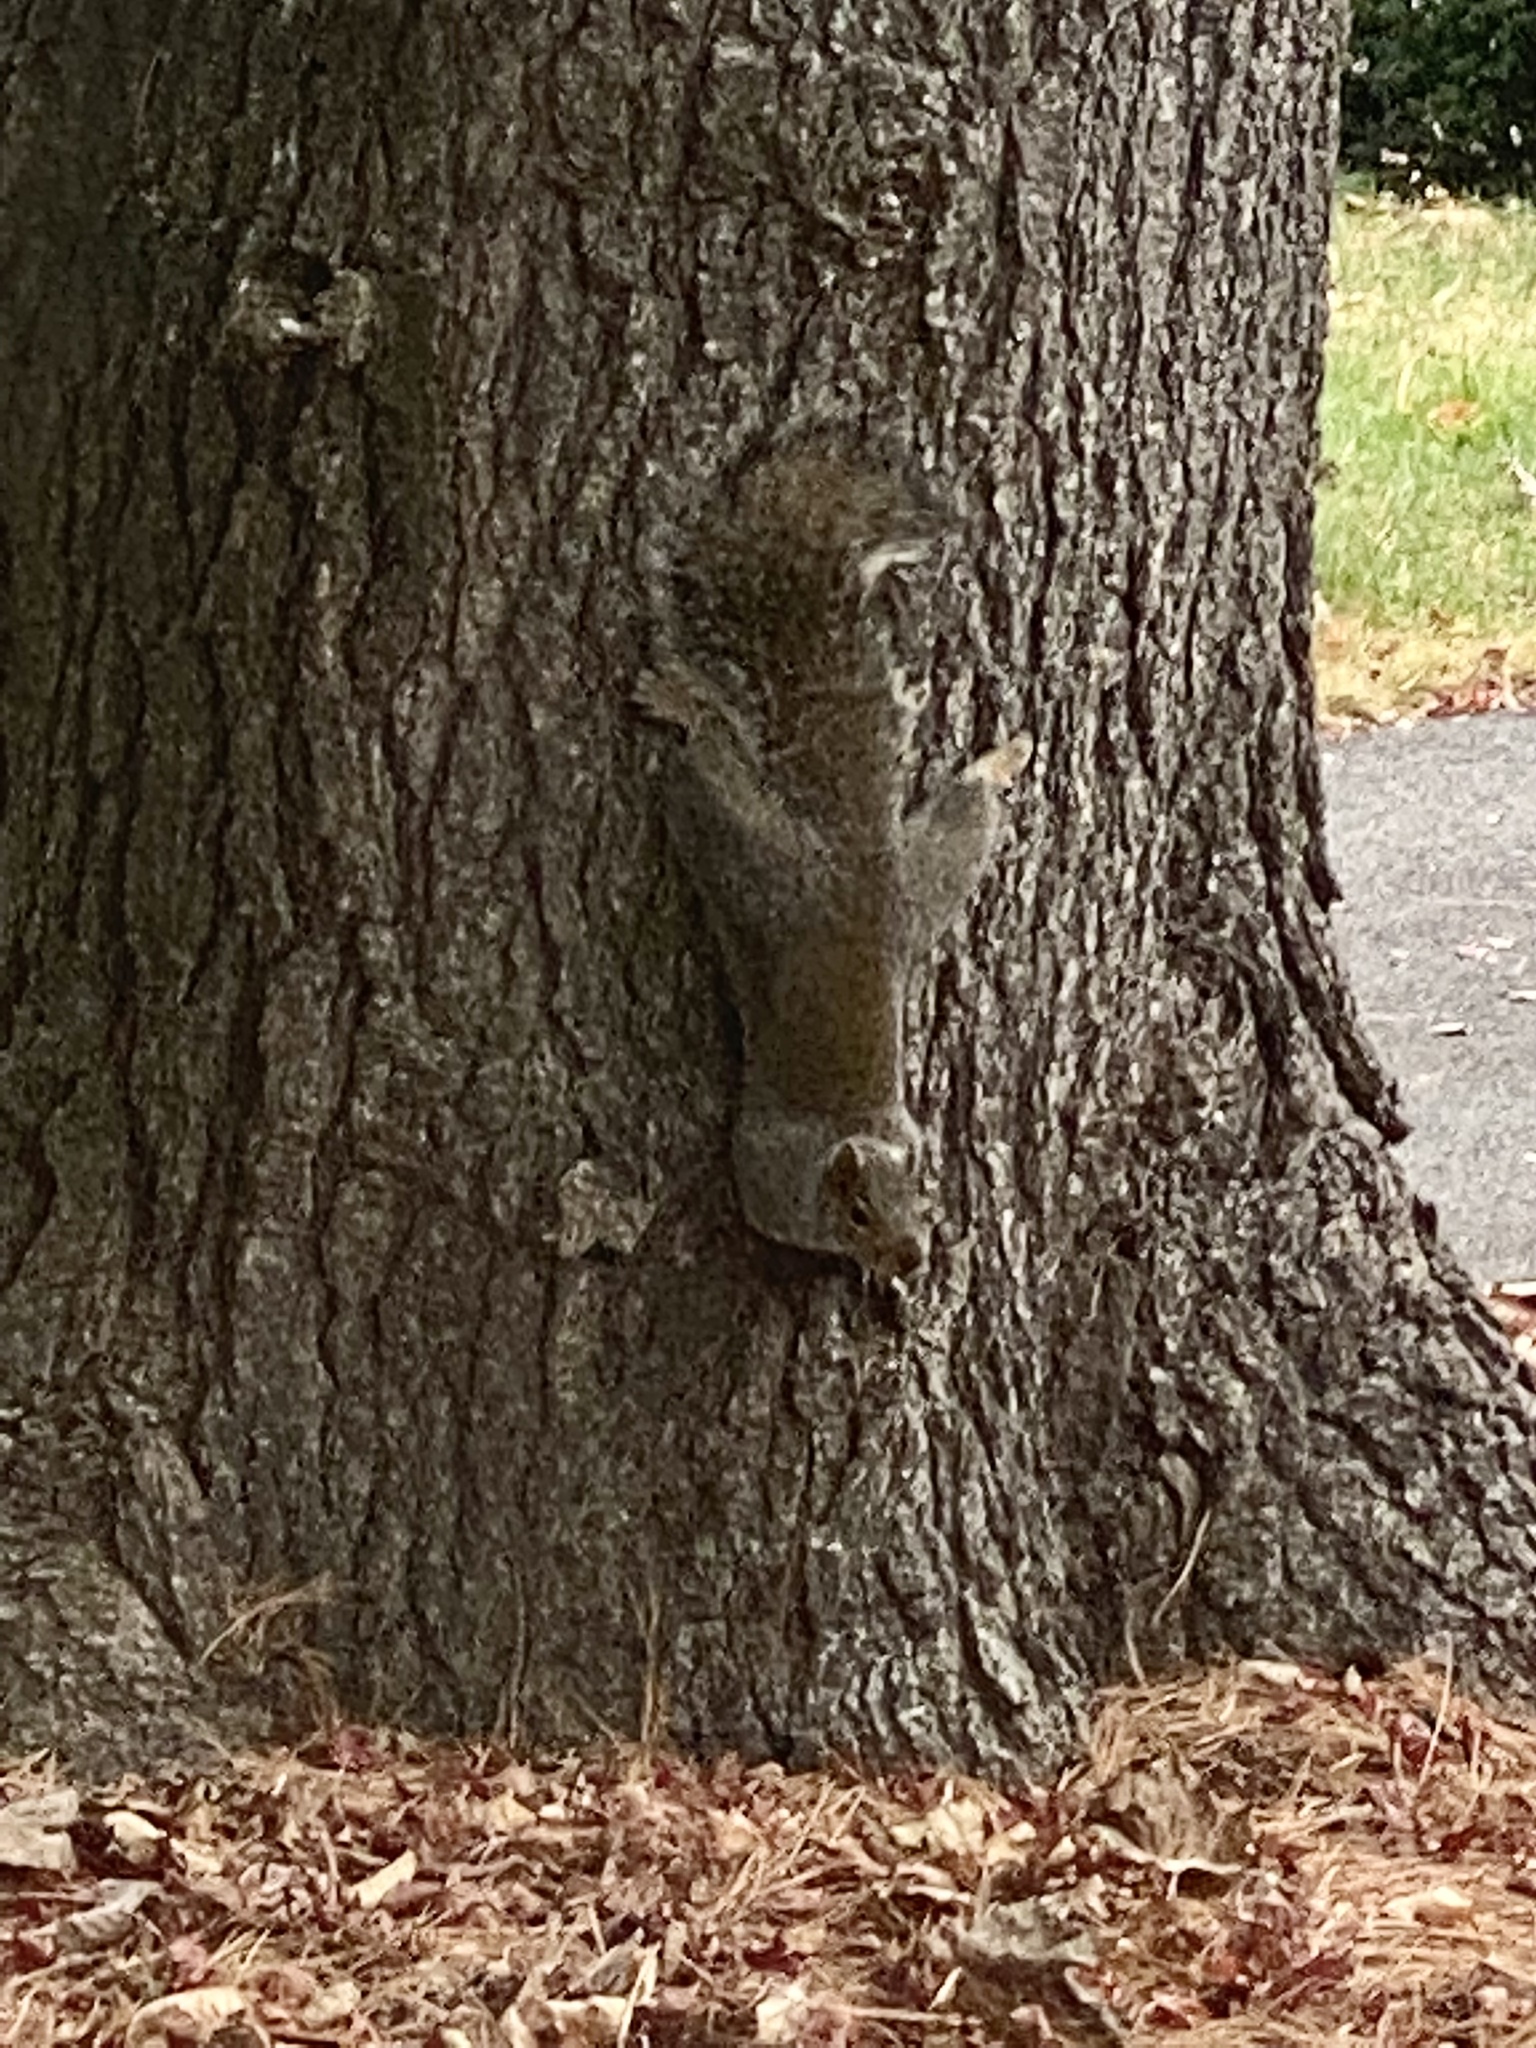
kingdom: Animalia
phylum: Chordata
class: Mammalia
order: Rodentia
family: Sciuridae
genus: Sciurus
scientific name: Sciurus carolinensis
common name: Eastern gray squirrel
